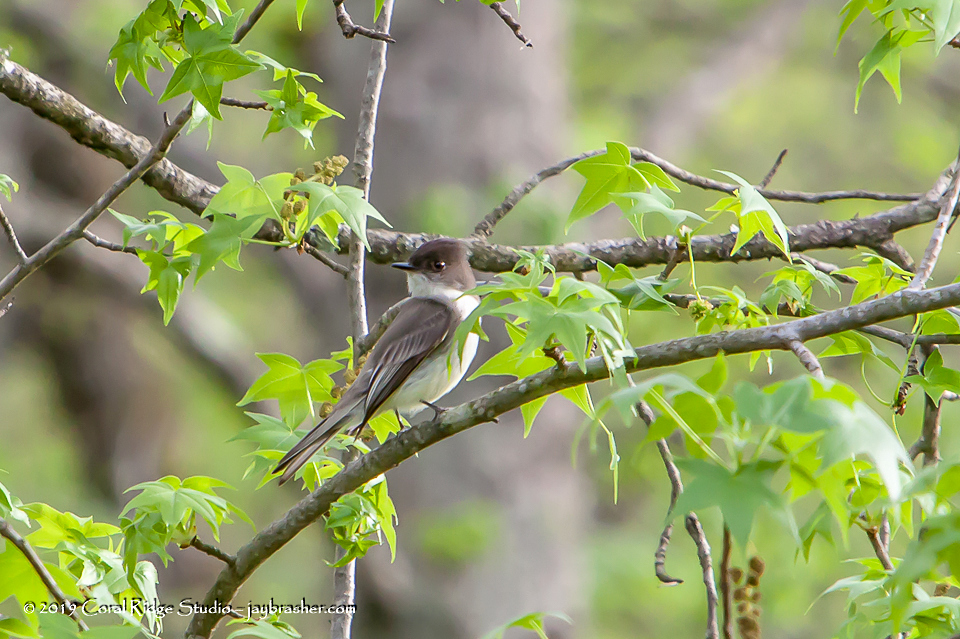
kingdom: Animalia
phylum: Chordata
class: Aves
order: Passeriformes
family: Tyrannidae
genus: Sayornis
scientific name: Sayornis phoebe
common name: Eastern phoebe
